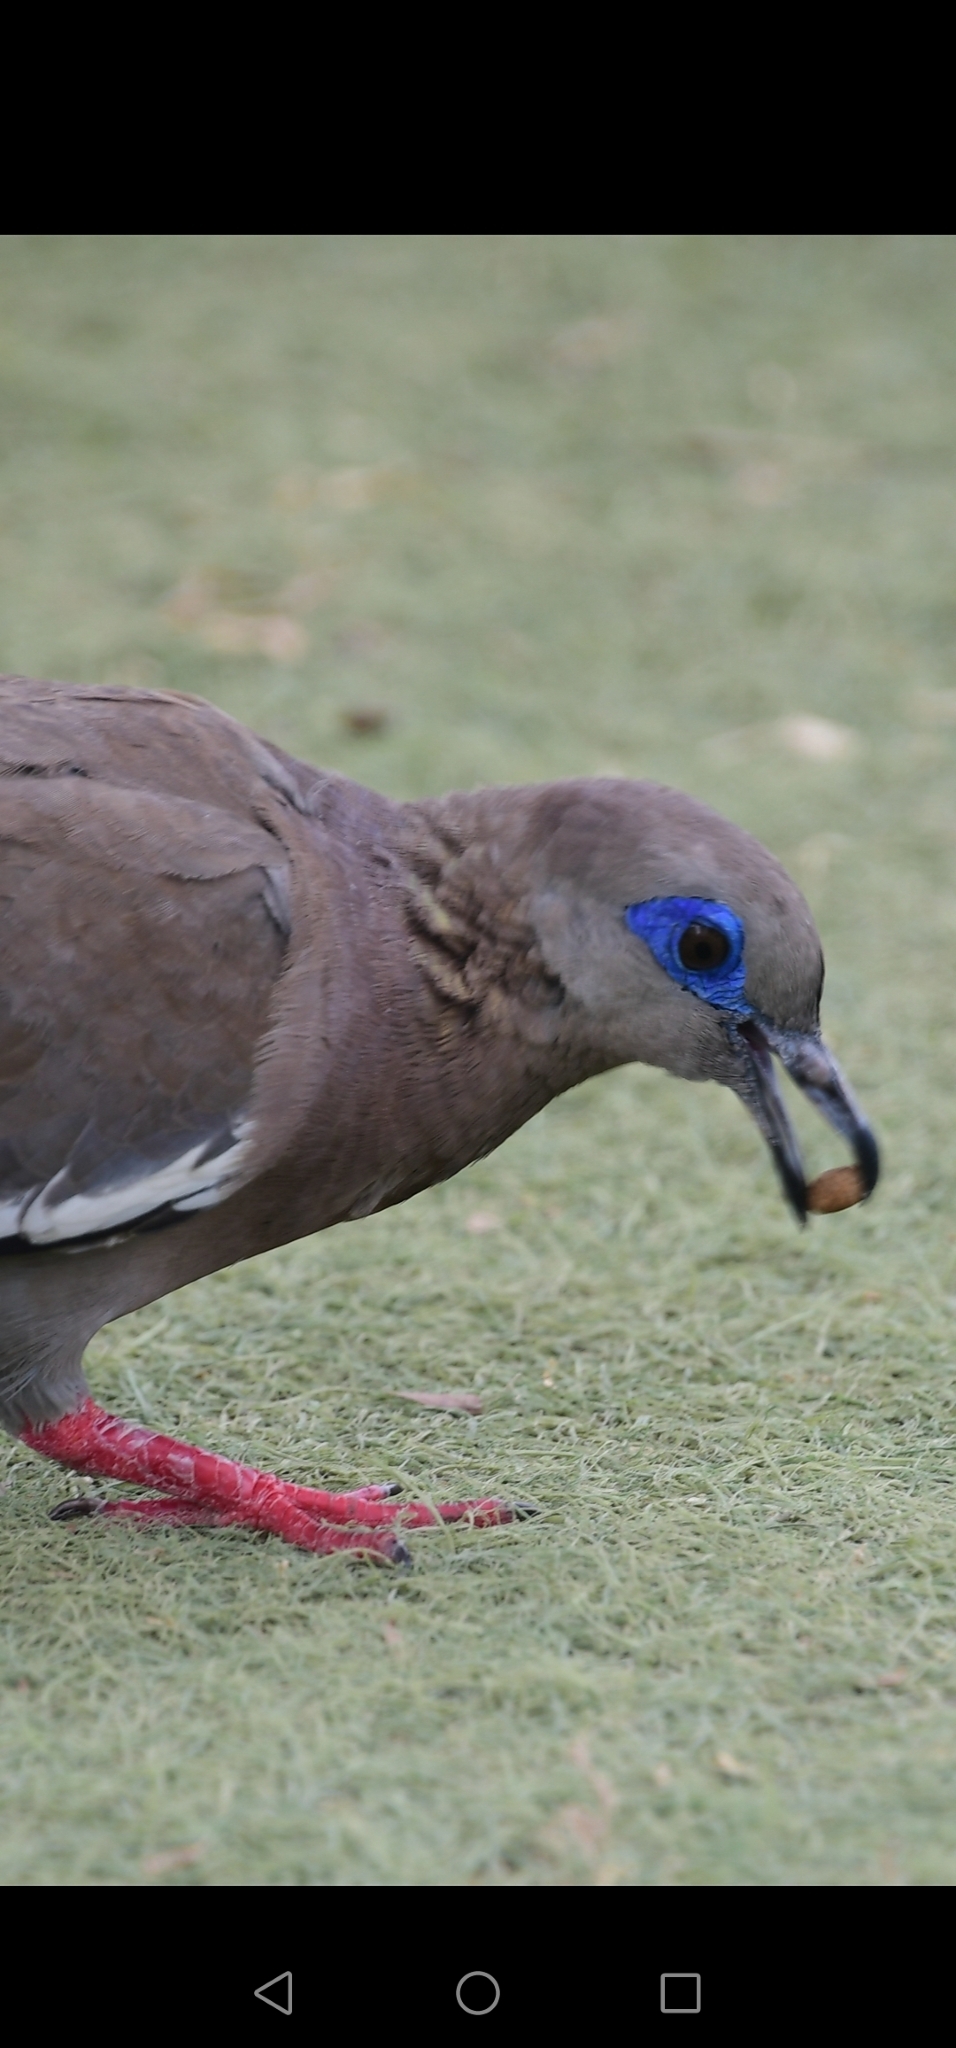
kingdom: Animalia
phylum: Chordata
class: Aves
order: Columbiformes
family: Columbidae
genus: Zenaida
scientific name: Zenaida meloda
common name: West peruvian dove
